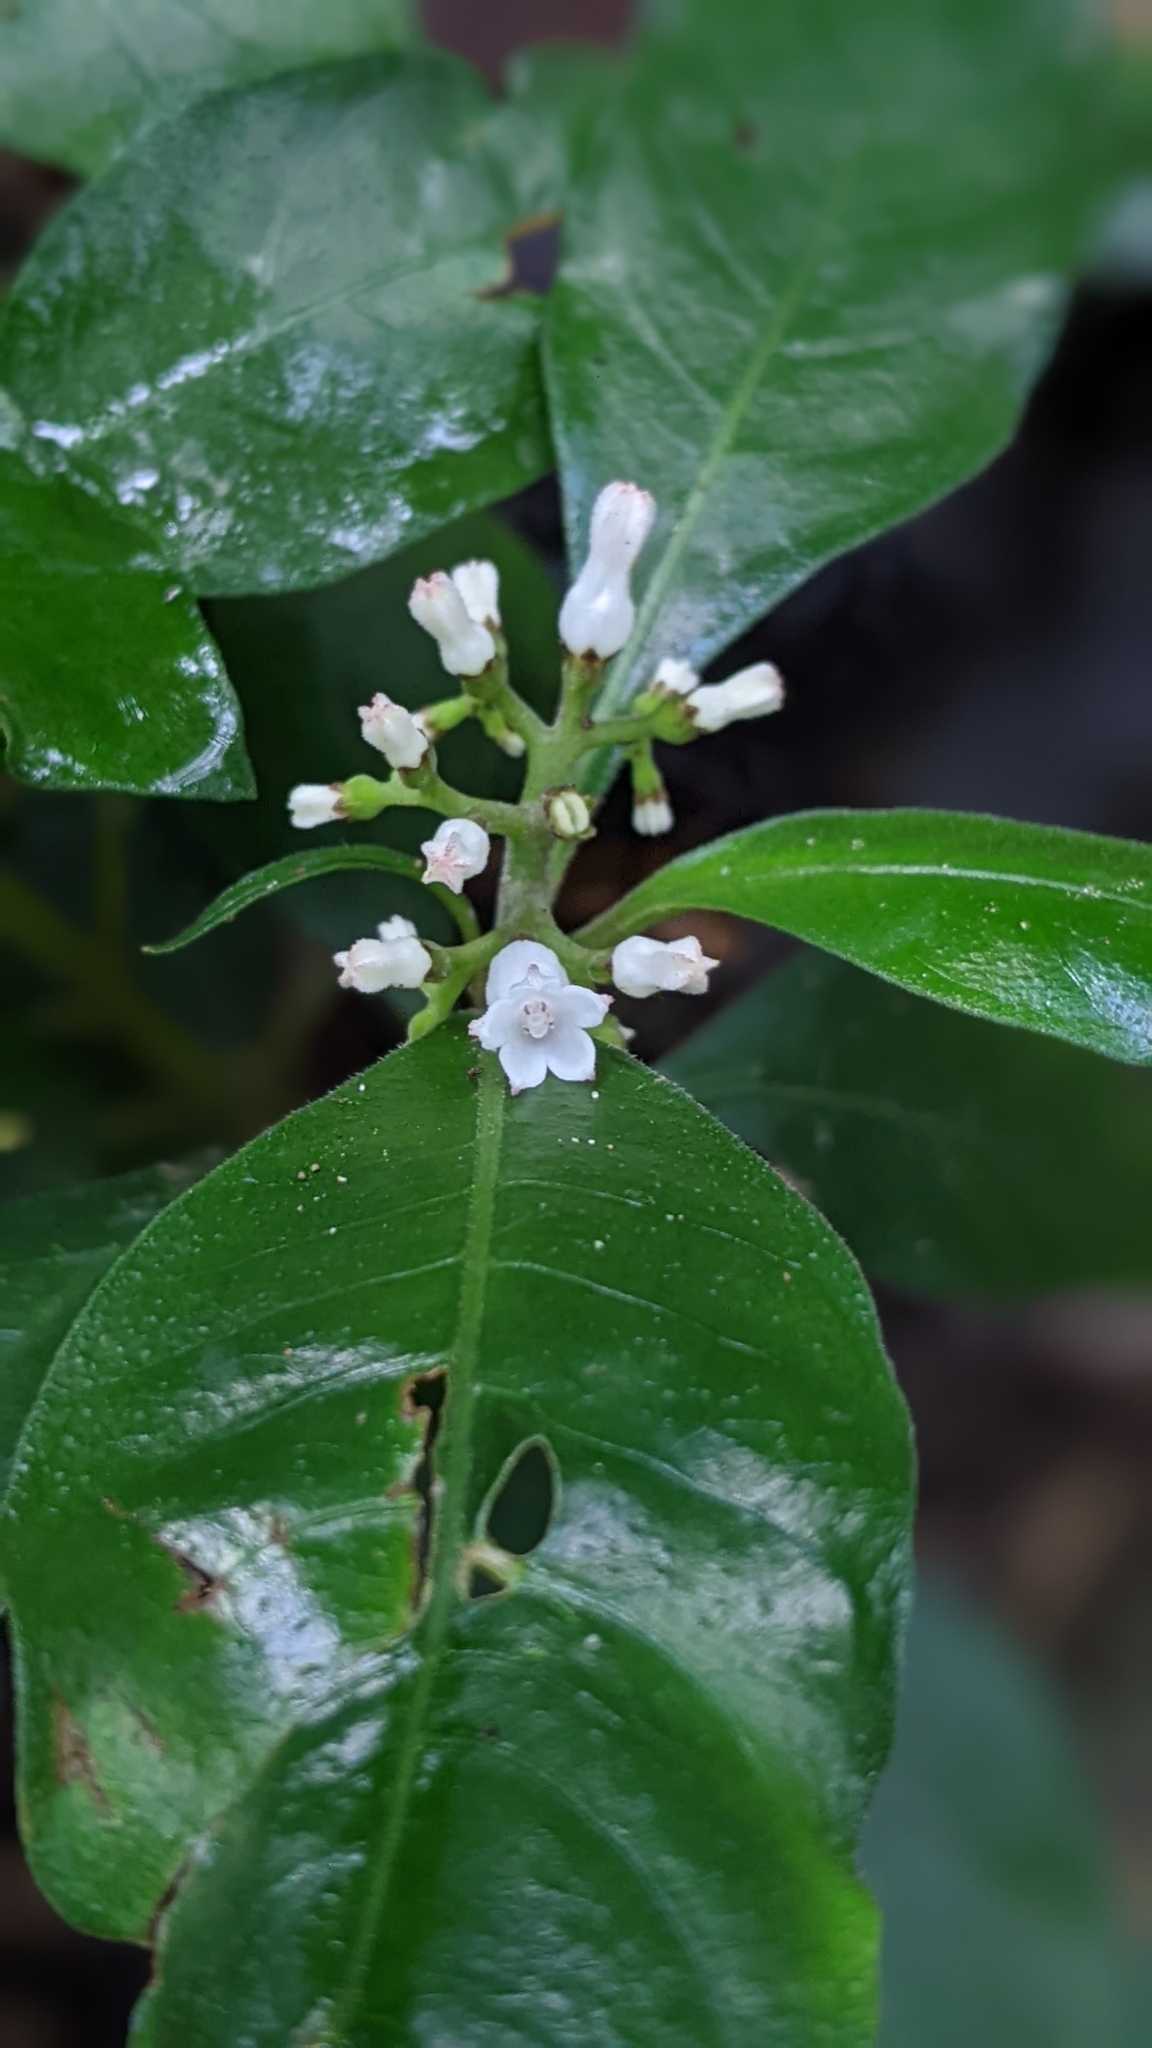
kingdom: Plantae
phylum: Tracheophyta
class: Magnoliopsida
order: Gentianales
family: Rubiaceae
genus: Ophiorrhiza
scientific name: Ophiorrhiza pumila
